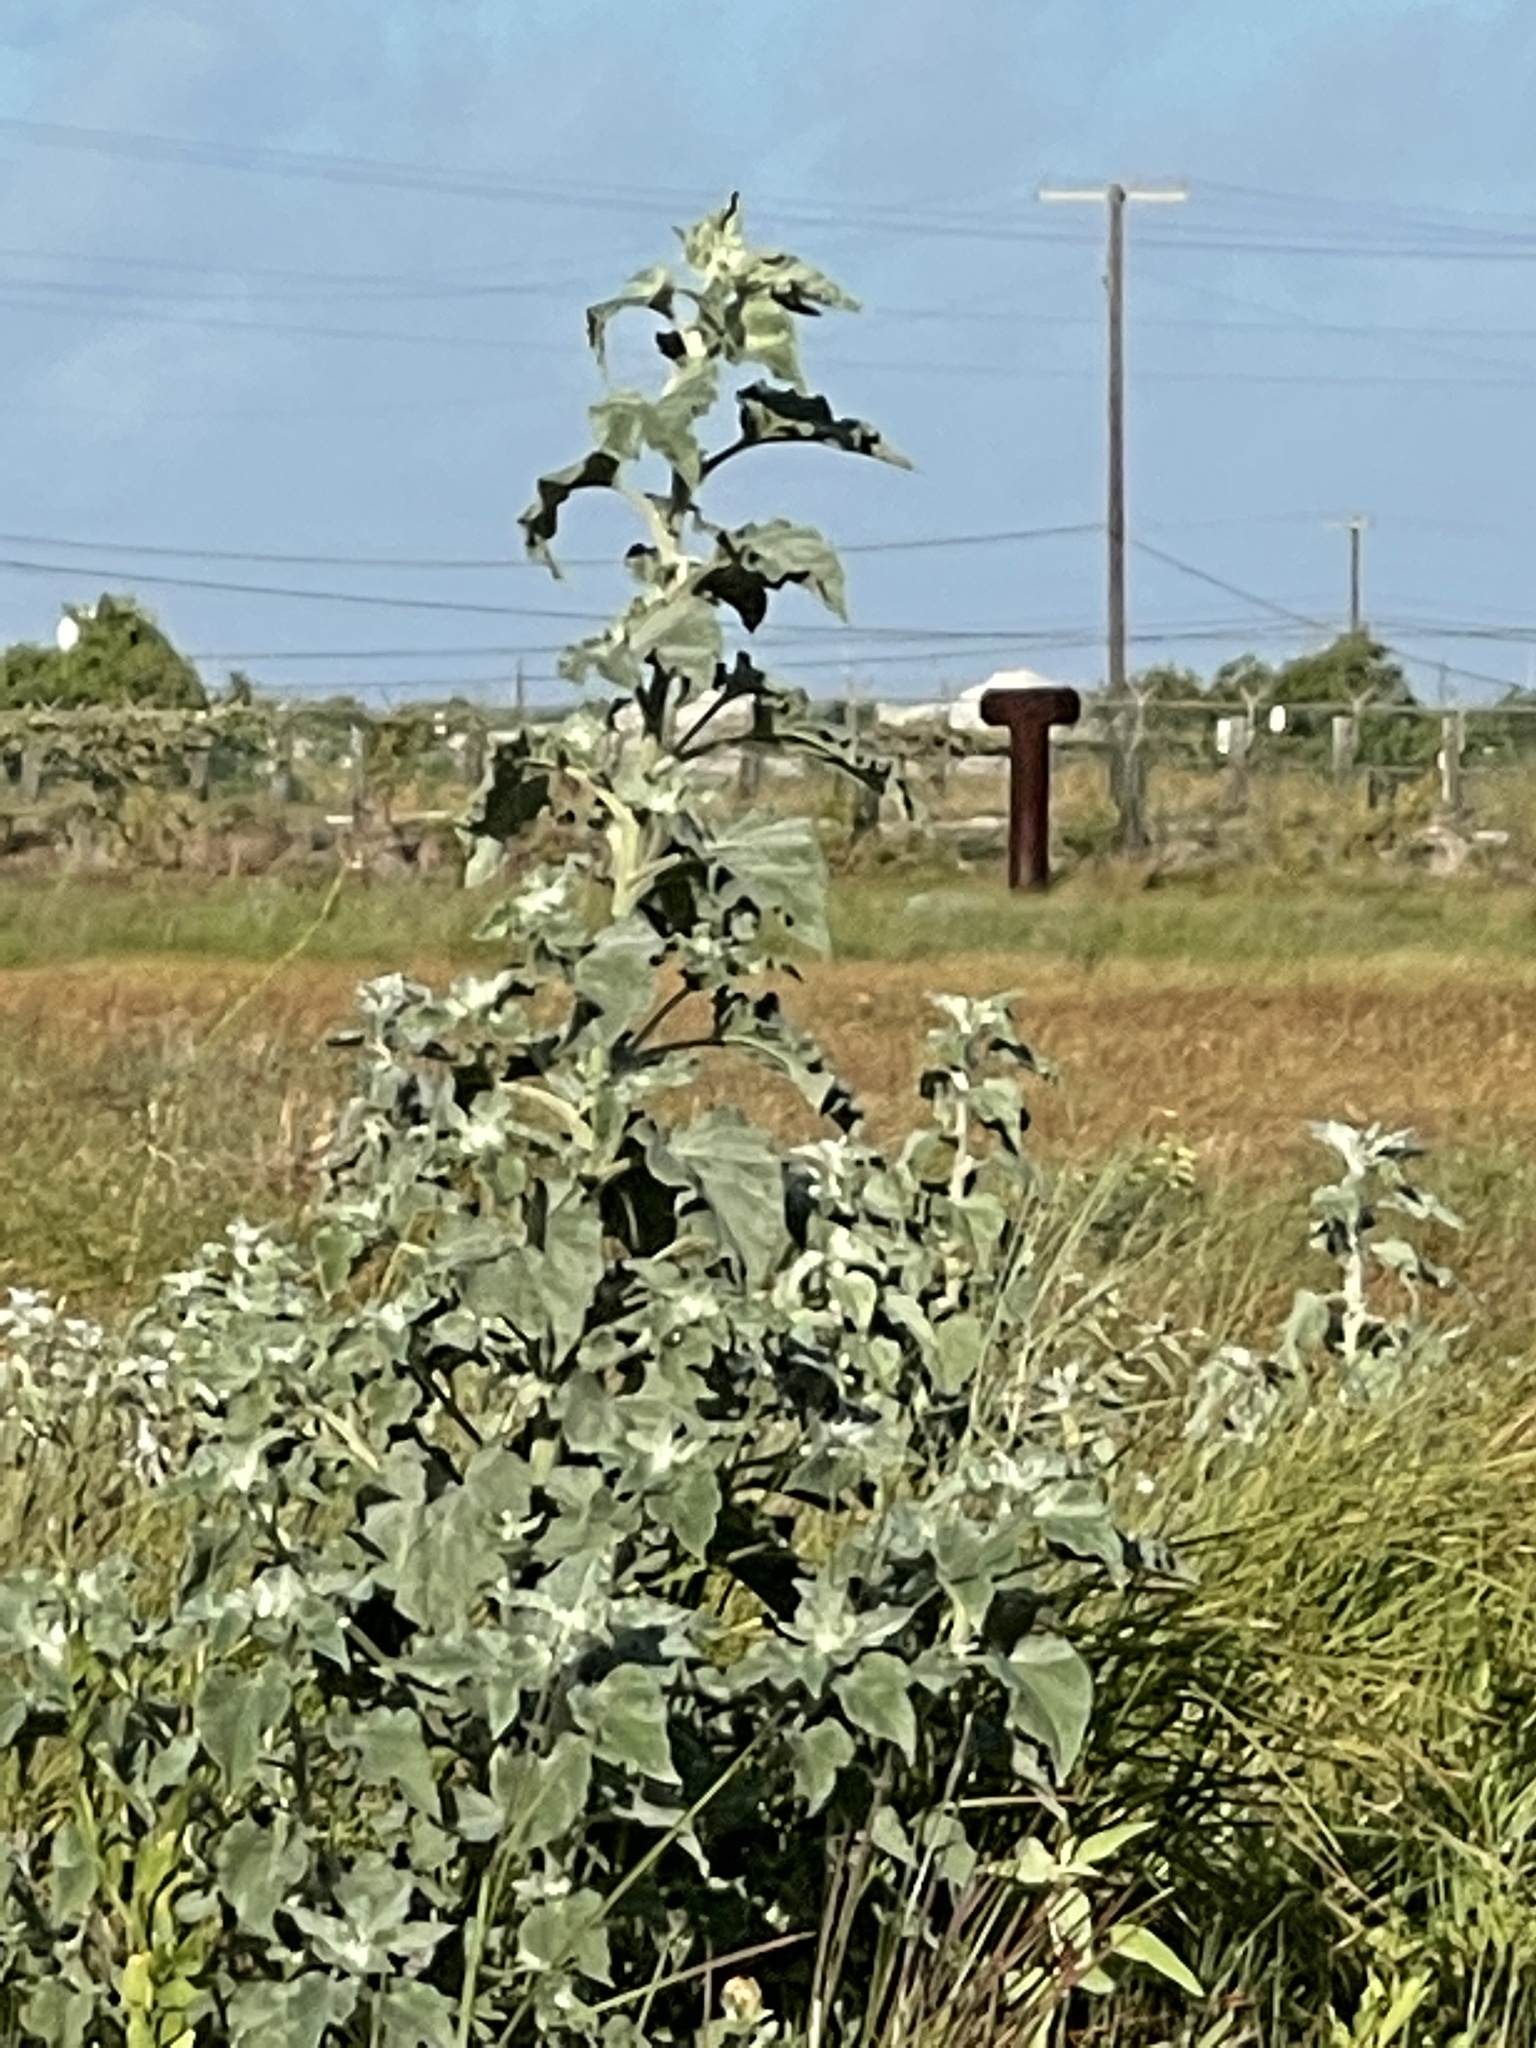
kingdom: Plantae
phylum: Tracheophyta
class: Magnoliopsida
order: Asterales
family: Asteraceae
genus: Helianthus
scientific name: Helianthus argophyllus
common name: Silverleaf sunflower
